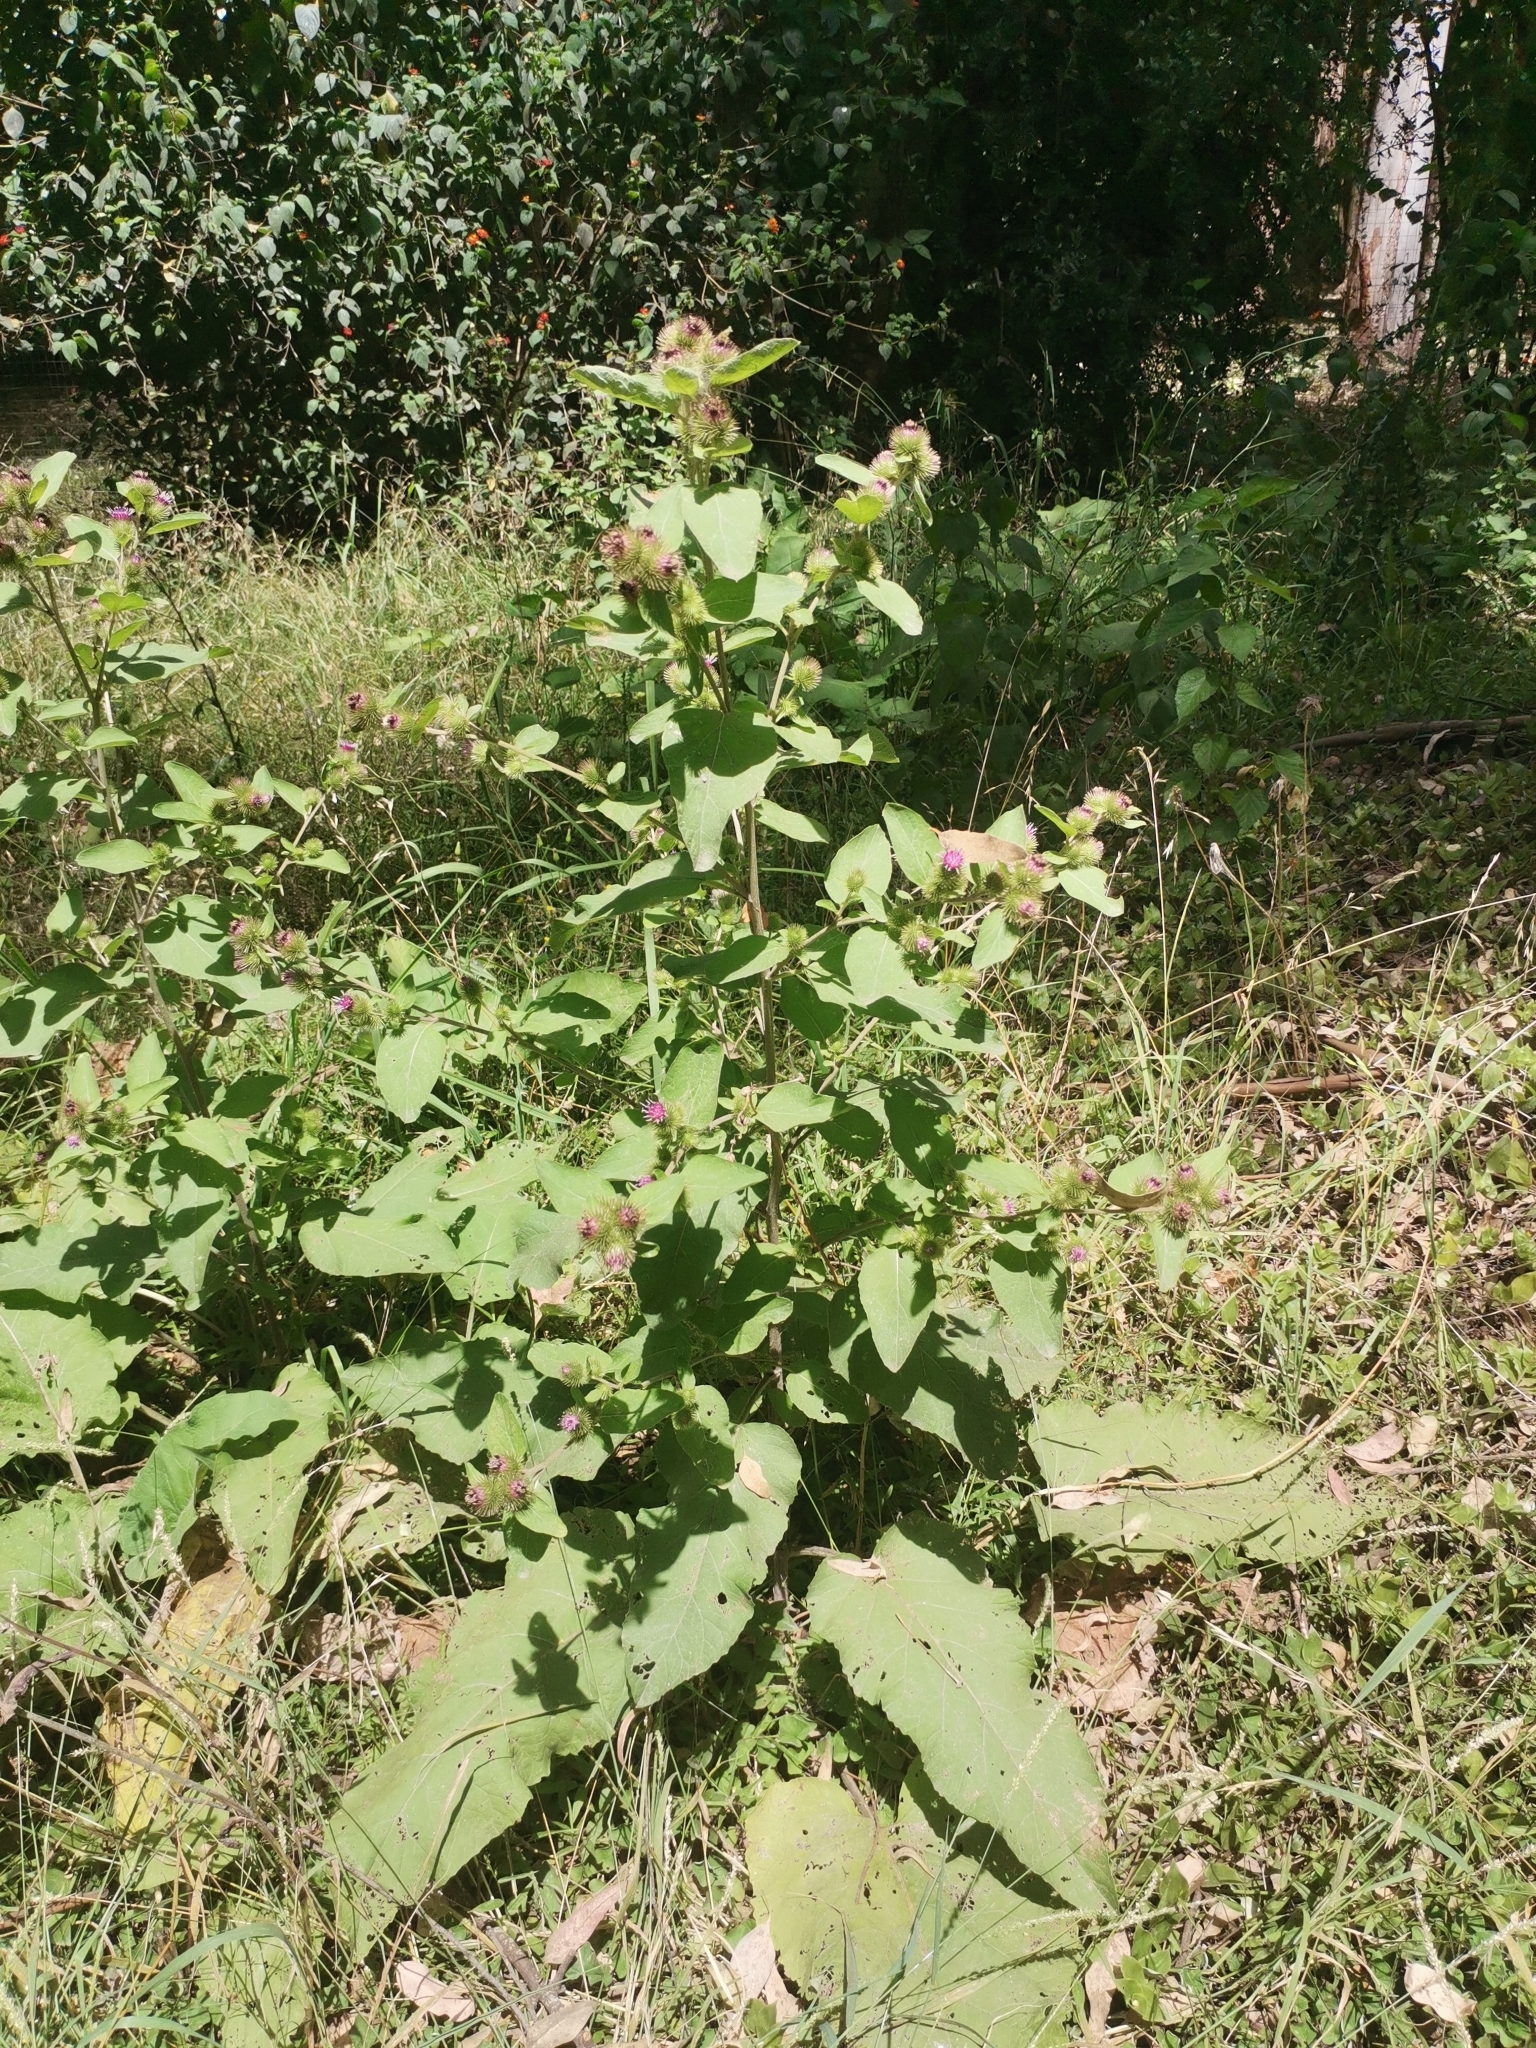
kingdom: Plantae
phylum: Tracheophyta
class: Magnoliopsida
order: Asterales
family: Asteraceae
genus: Arctium
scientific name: Arctium minus
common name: Lesser burdock
